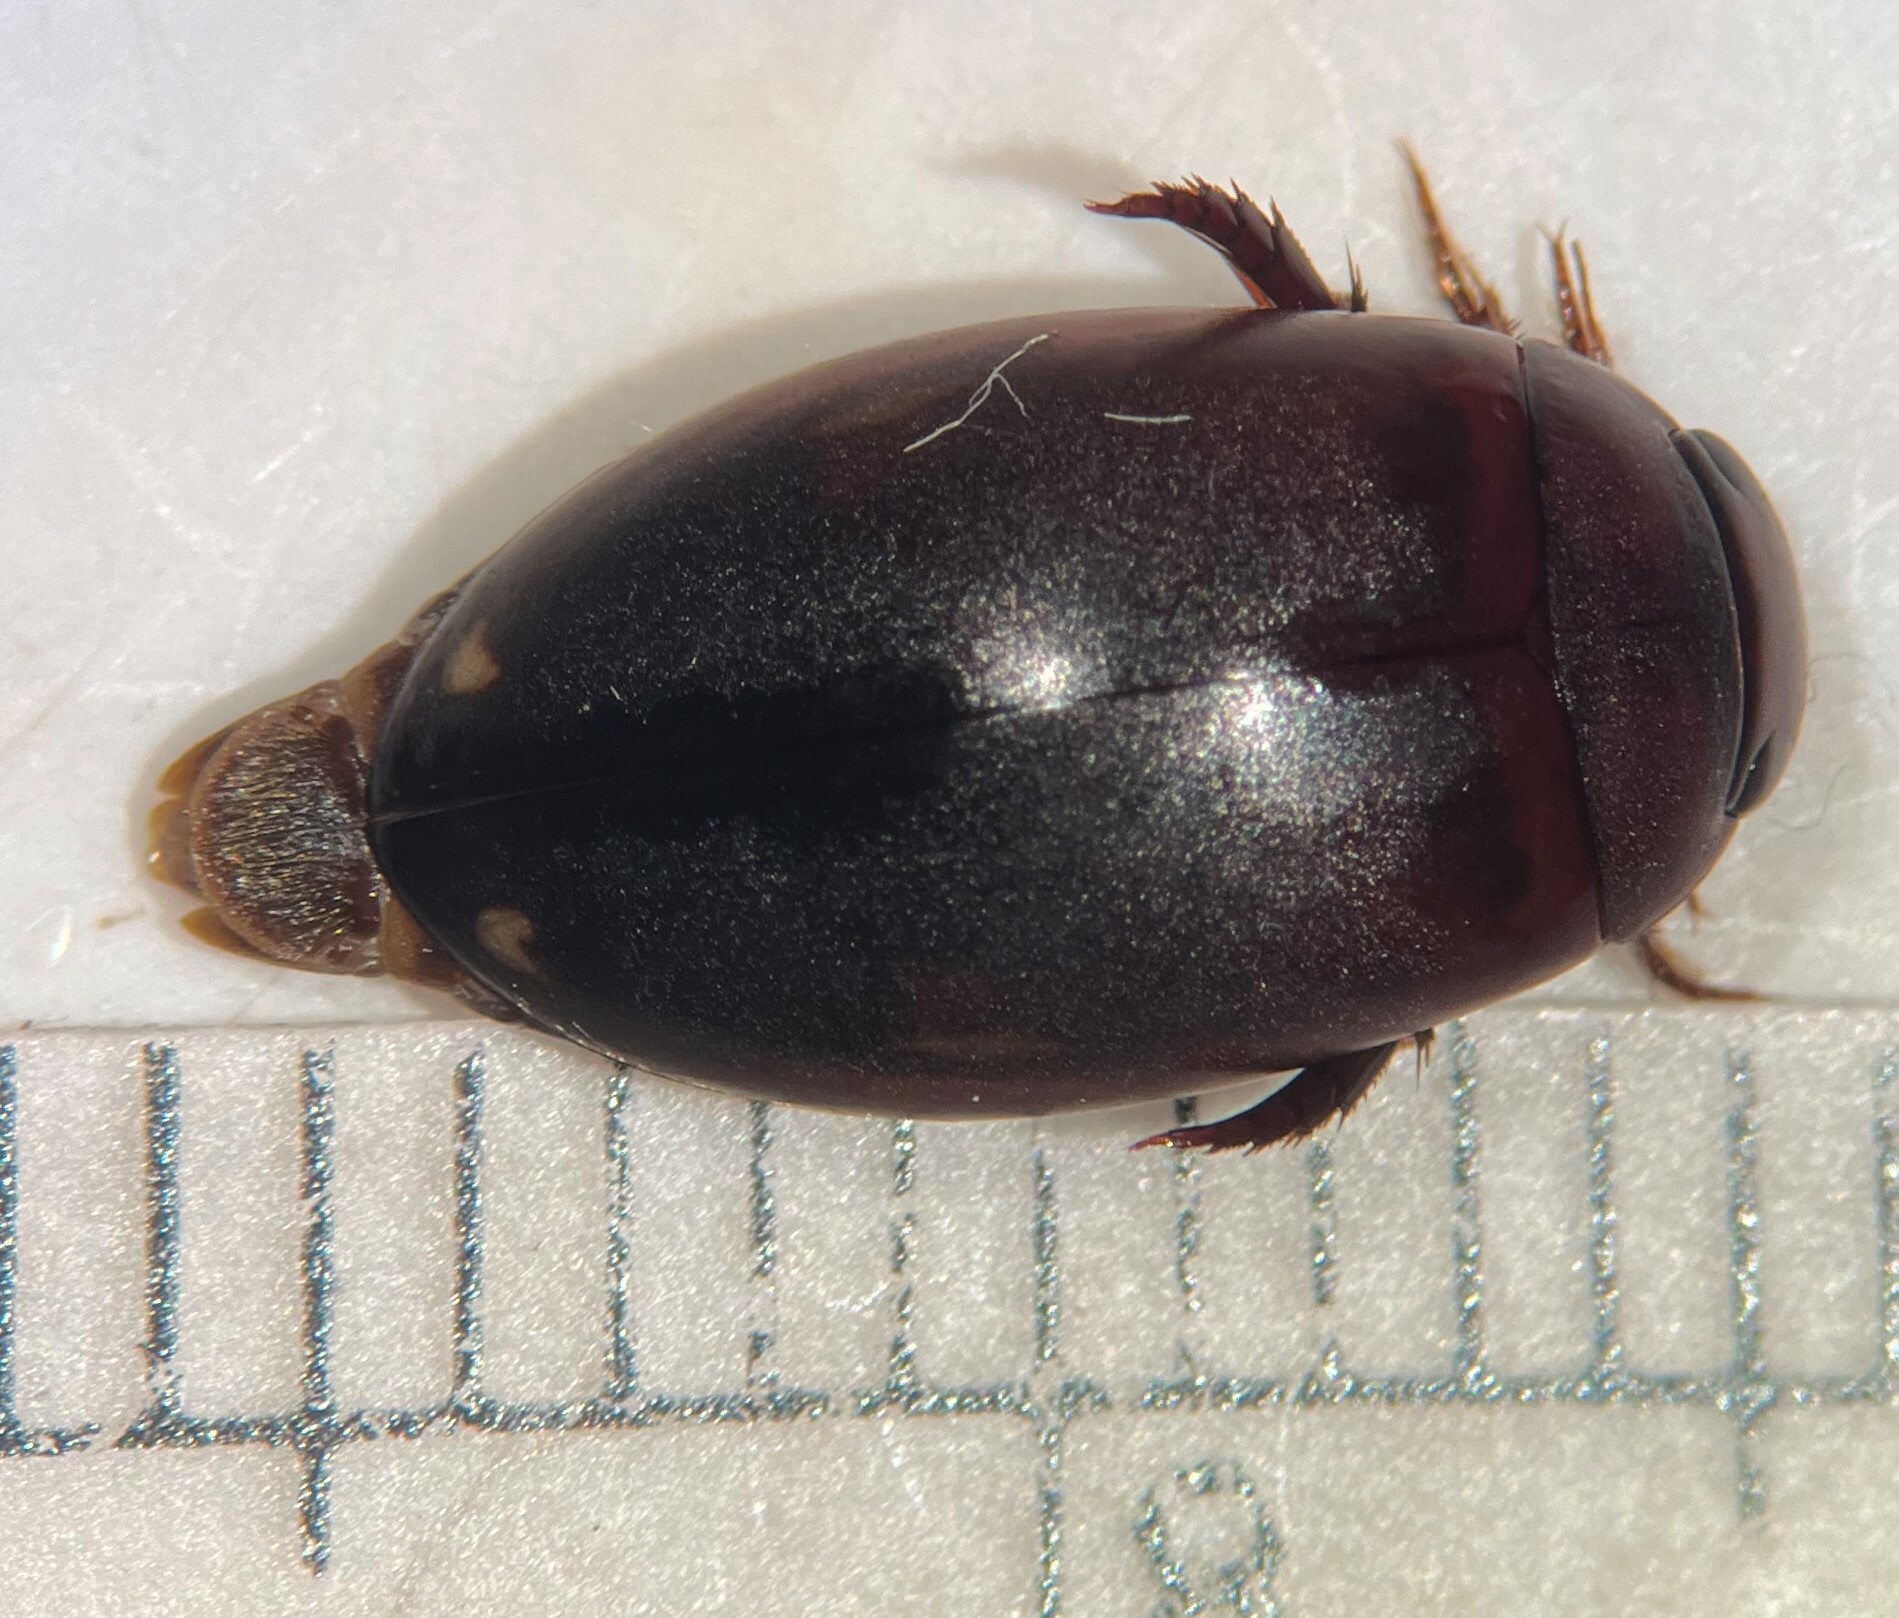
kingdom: Animalia
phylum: Arthropoda
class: Insecta
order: Coleoptera
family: Dytiscidae
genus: Ilybius
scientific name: Ilybius incarinatus
